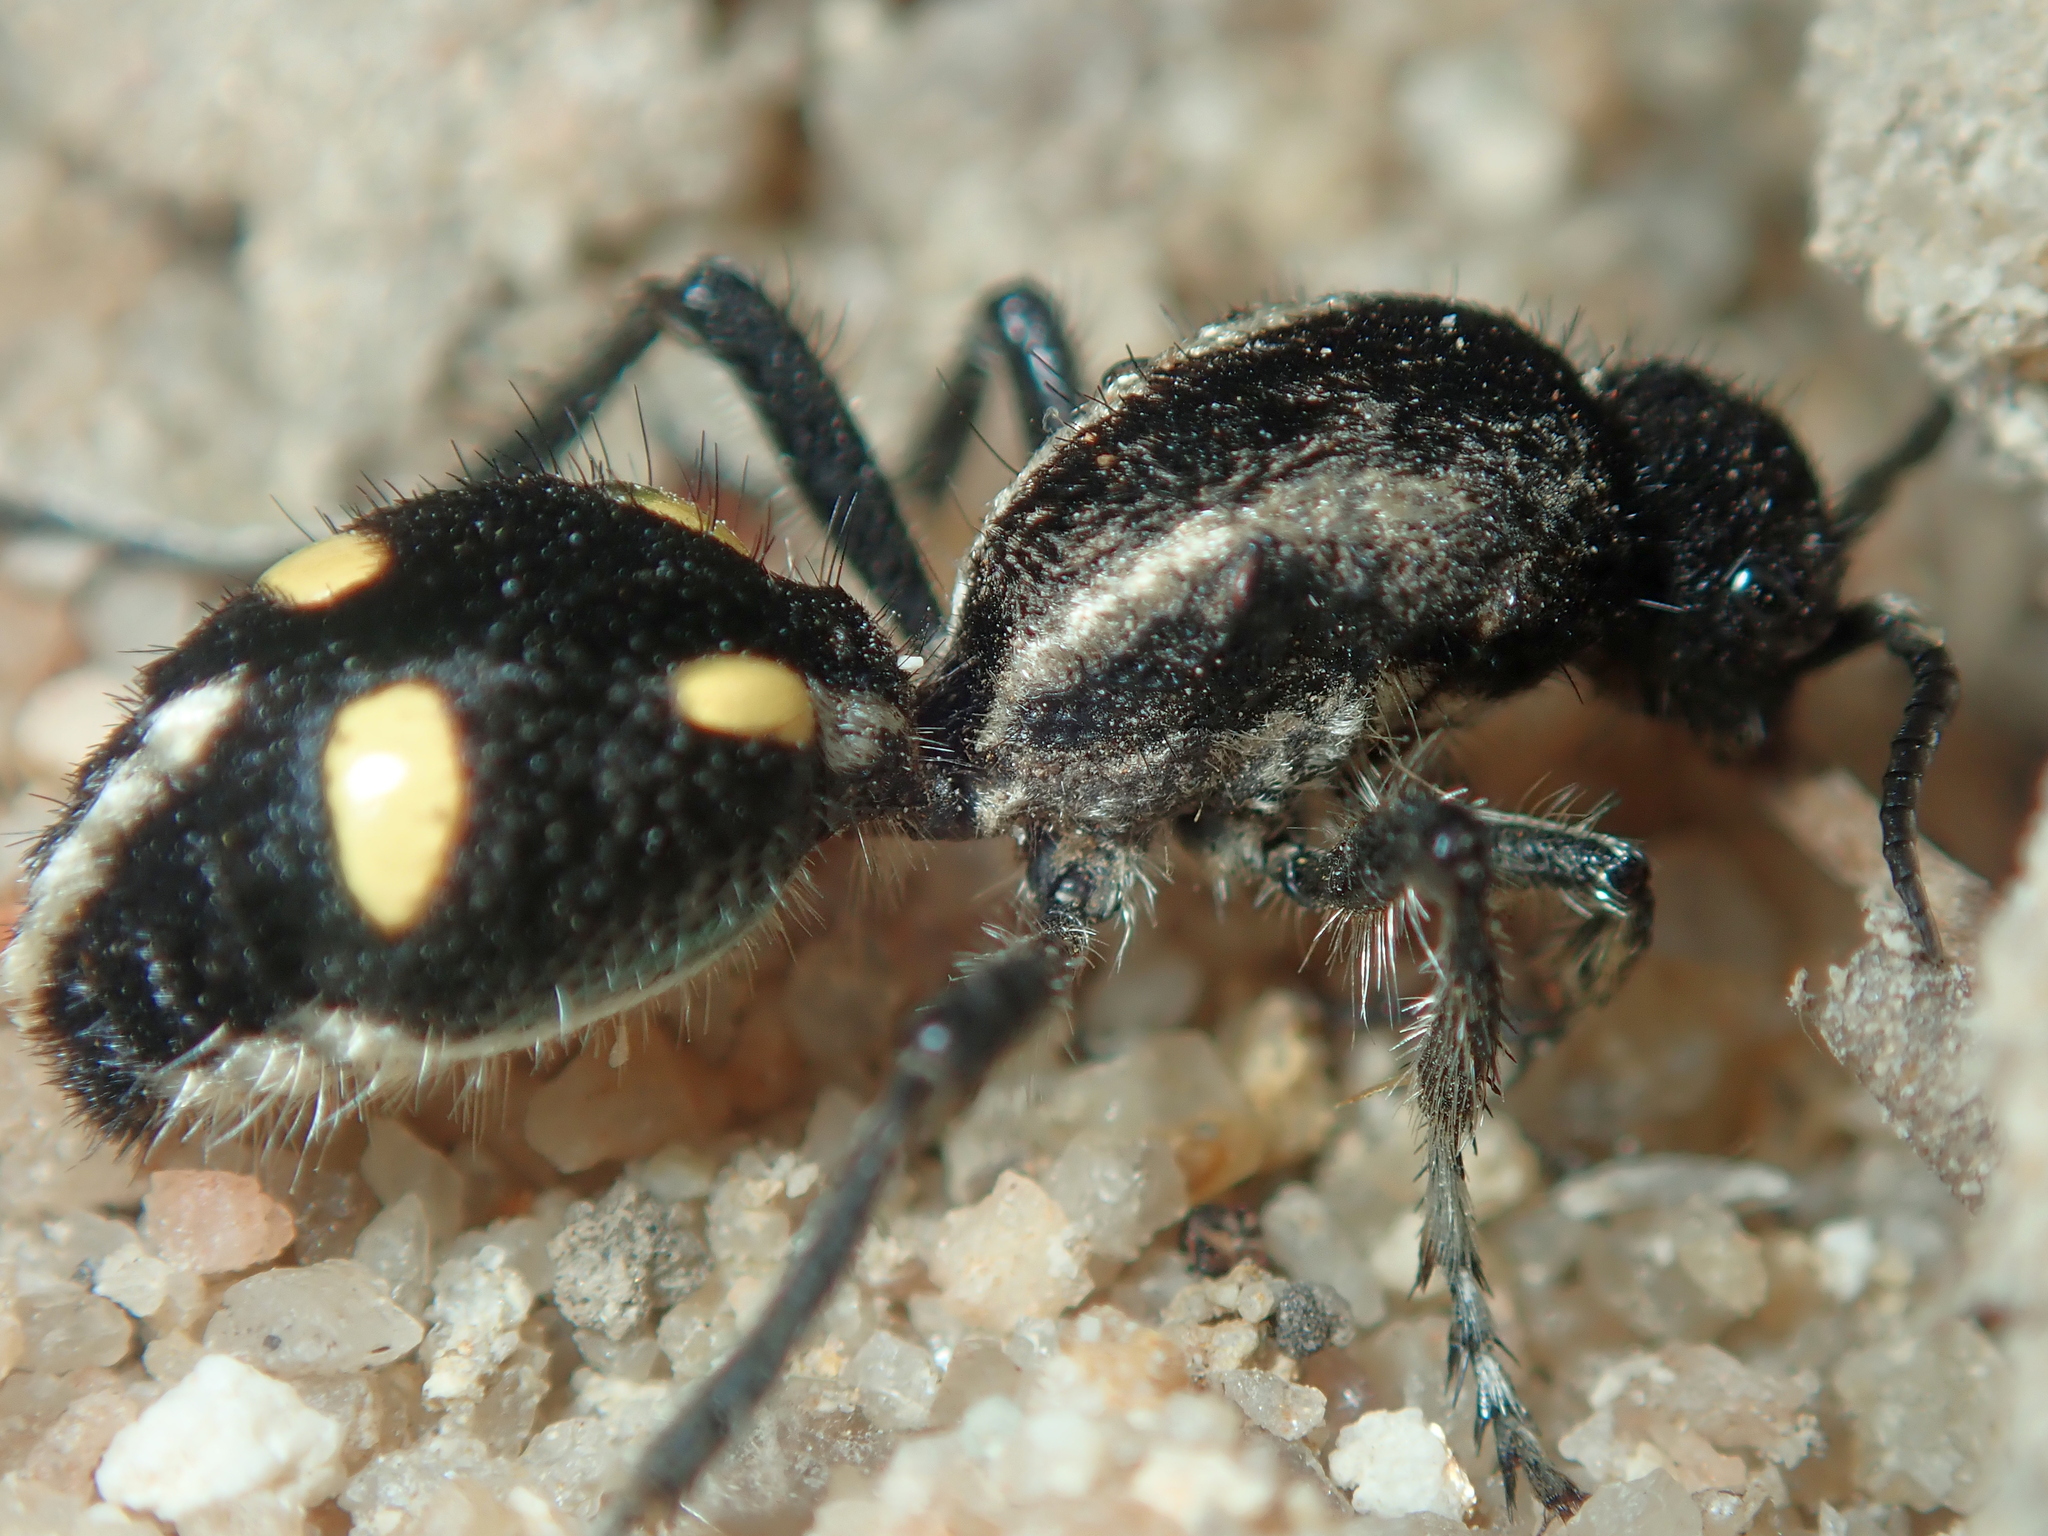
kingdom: Animalia
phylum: Arthropoda
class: Insecta
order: Hymenoptera
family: Mutillidae
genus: Traumatomutilla
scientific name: Traumatomutilla
